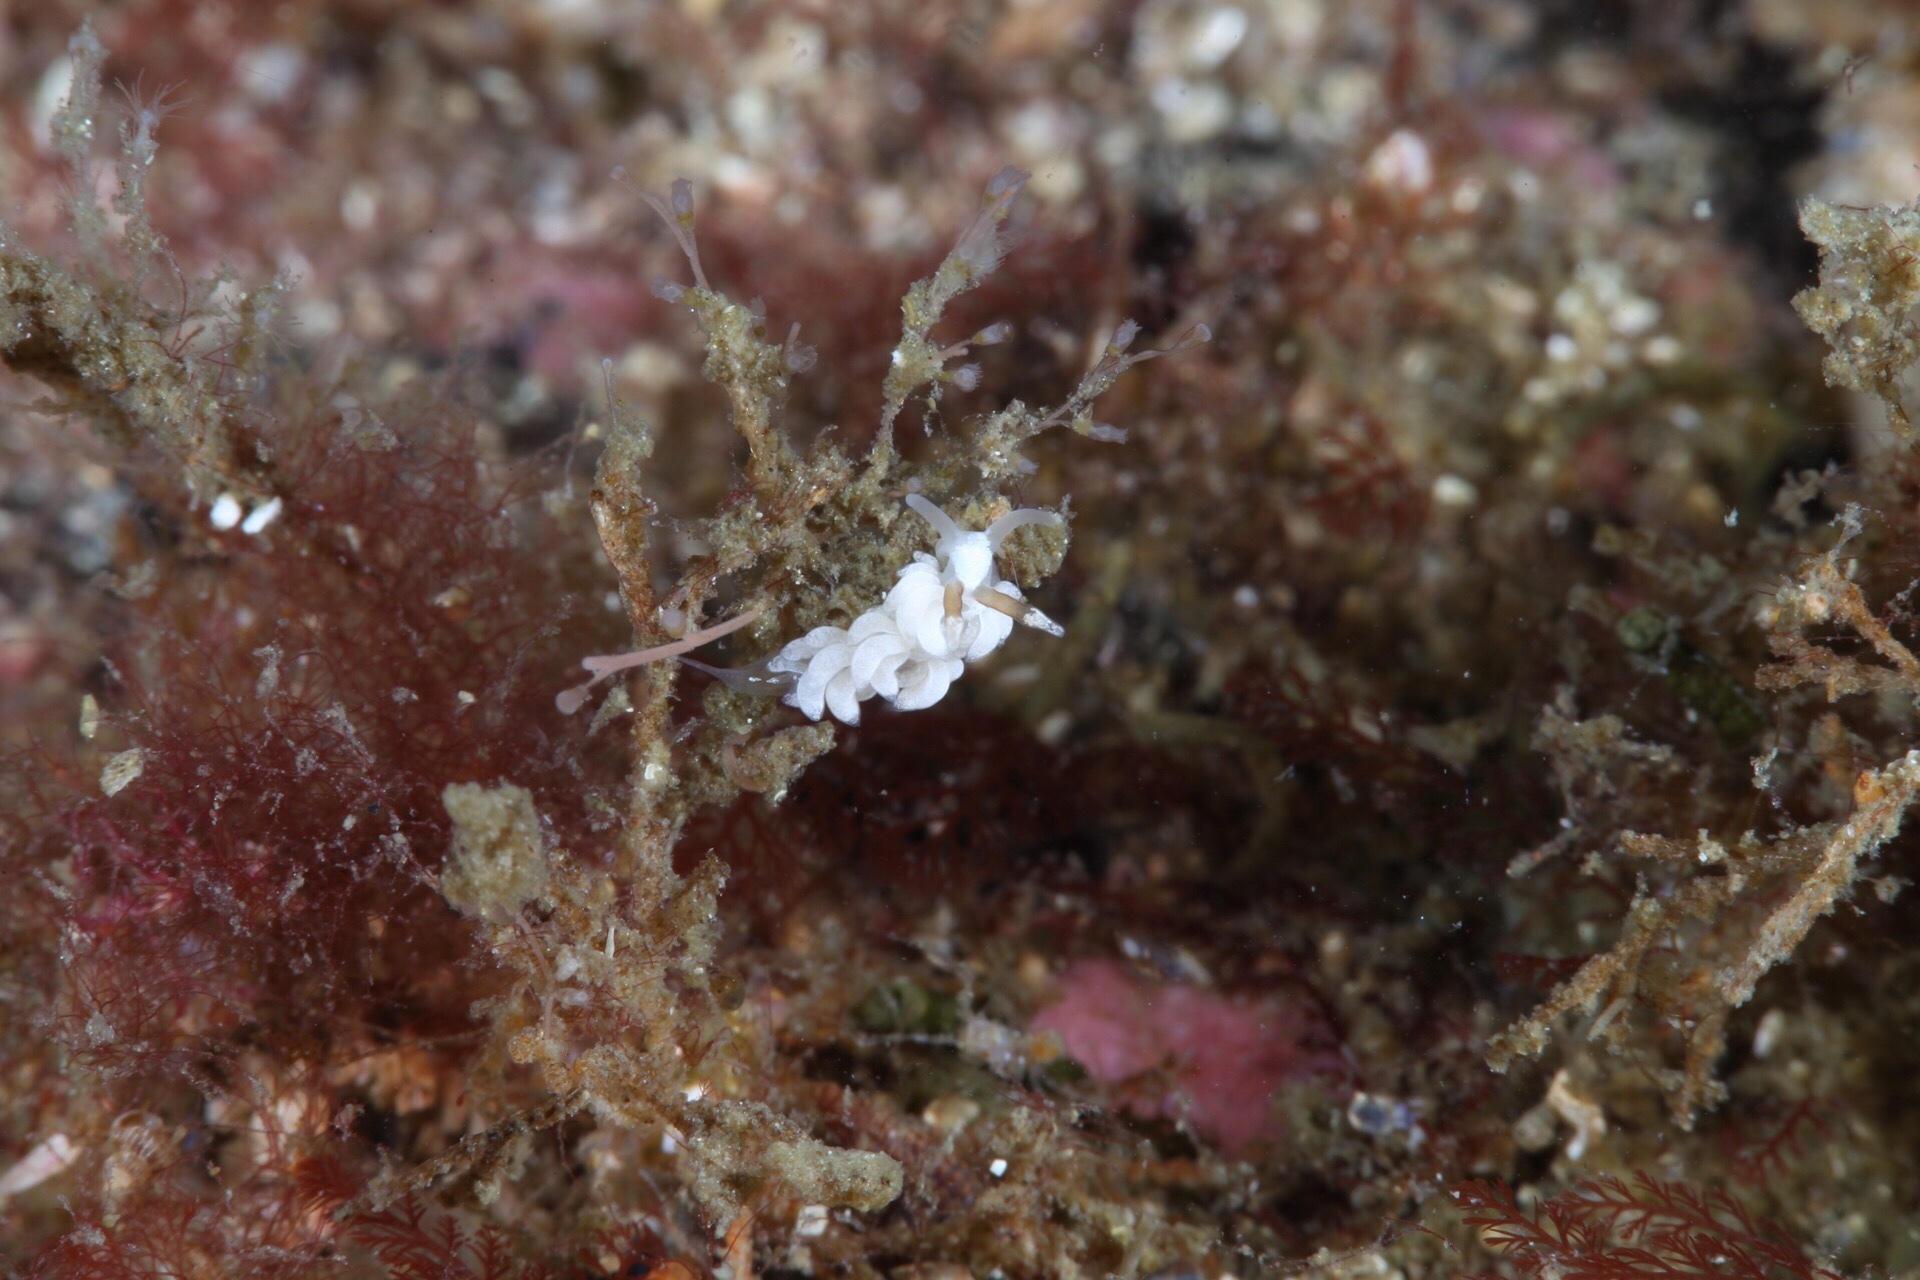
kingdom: Animalia
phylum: Mollusca
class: Gastropoda
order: Nudibranchia
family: Facelinidae
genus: Favorinus
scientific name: Favorinus branchialis
